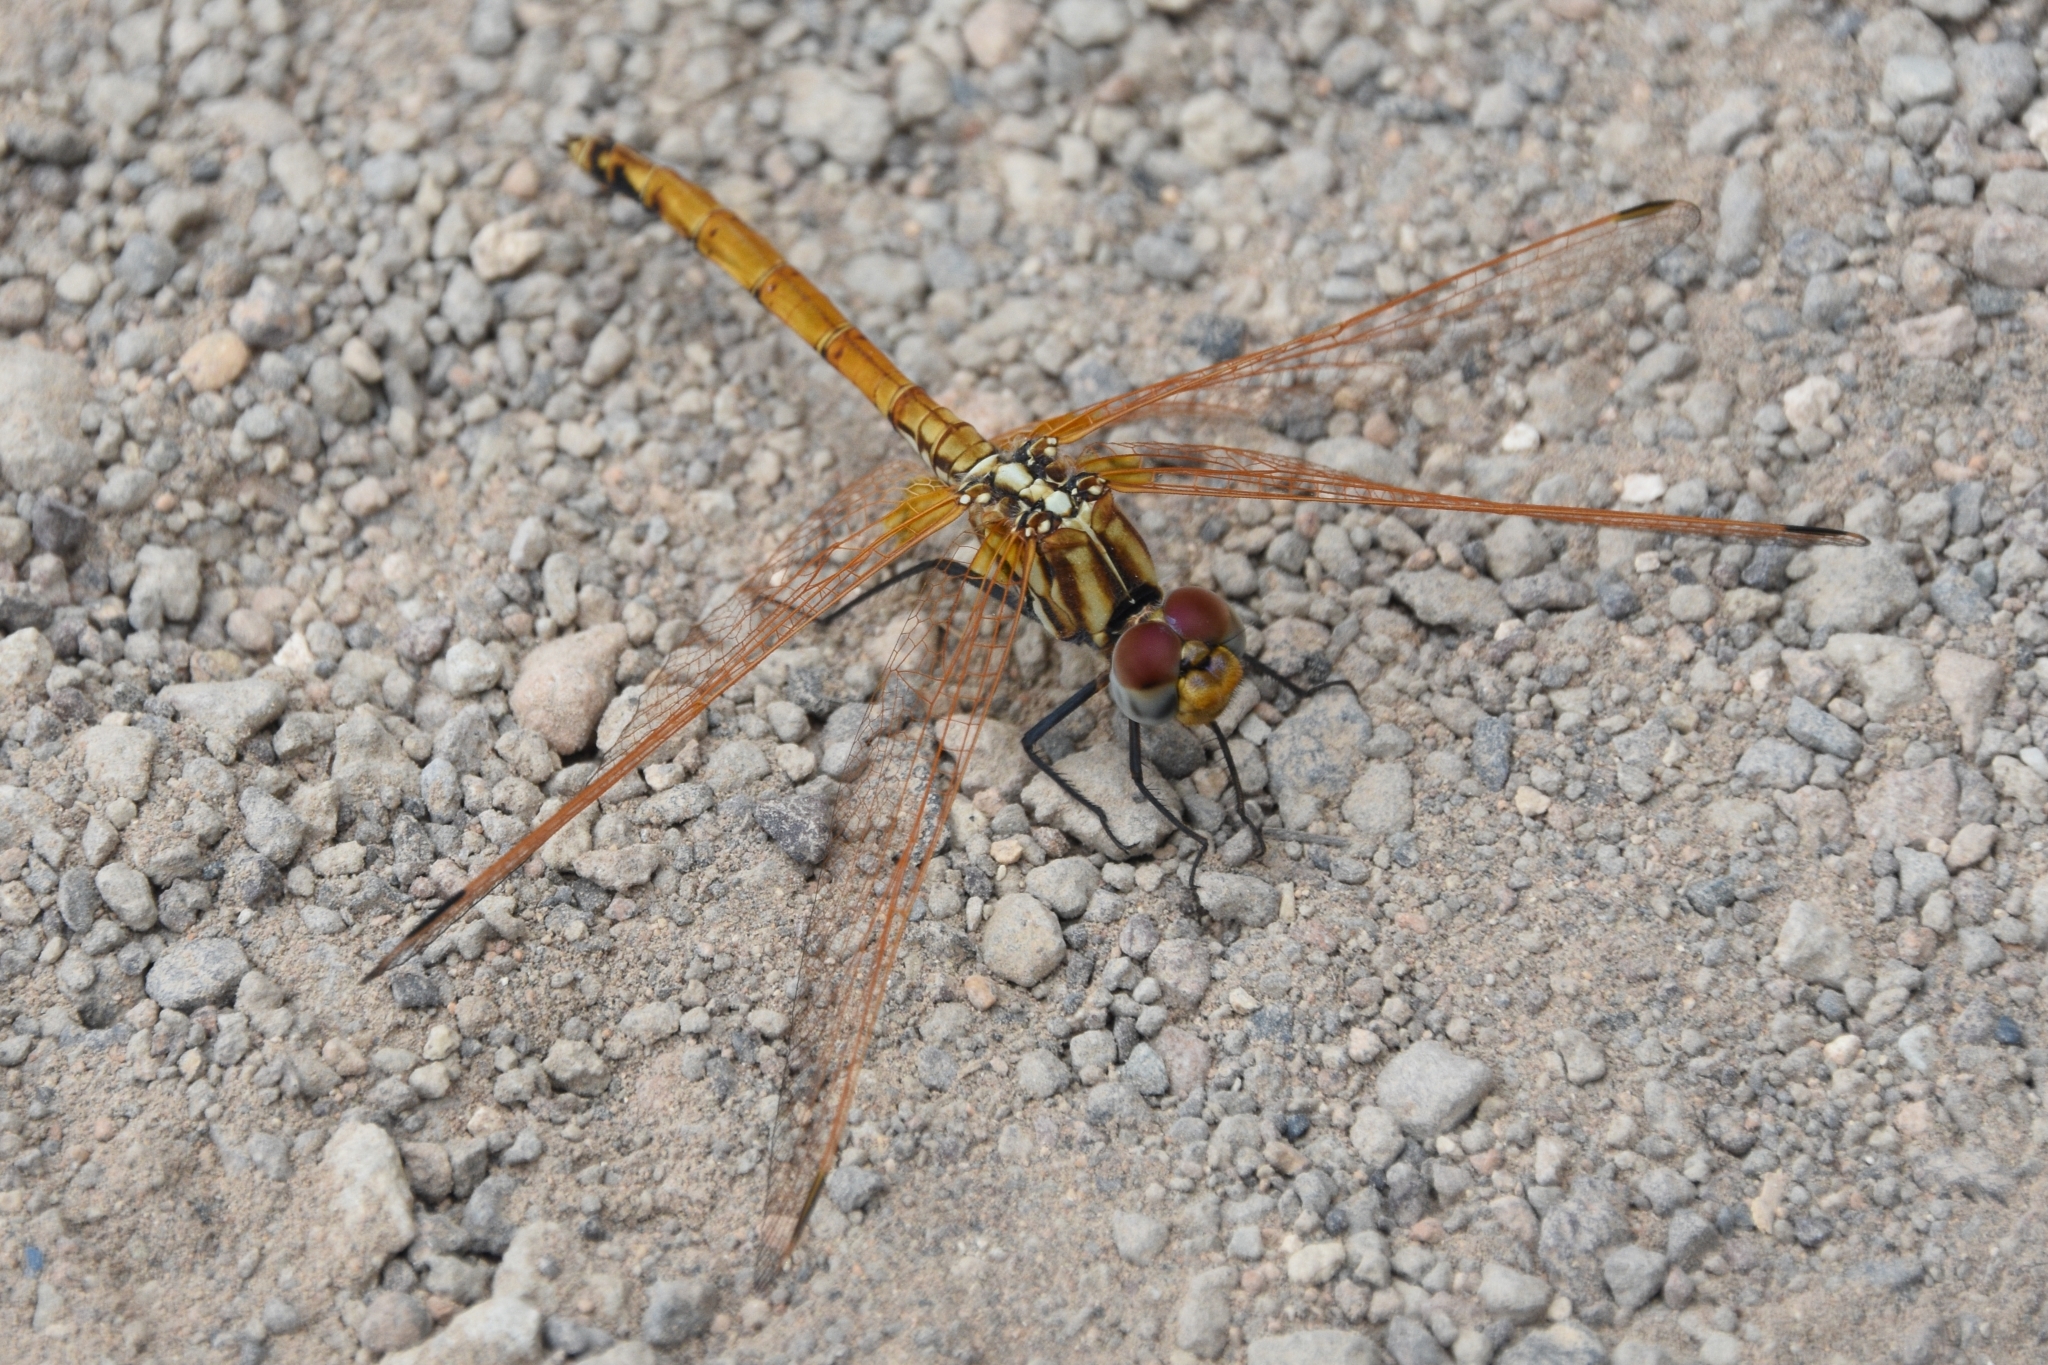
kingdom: Animalia
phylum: Arthropoda
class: Insecta
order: Odonata
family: Libellulidae
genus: Trithemis
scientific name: Trithemis arteriosa
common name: Red-veined dropwing
